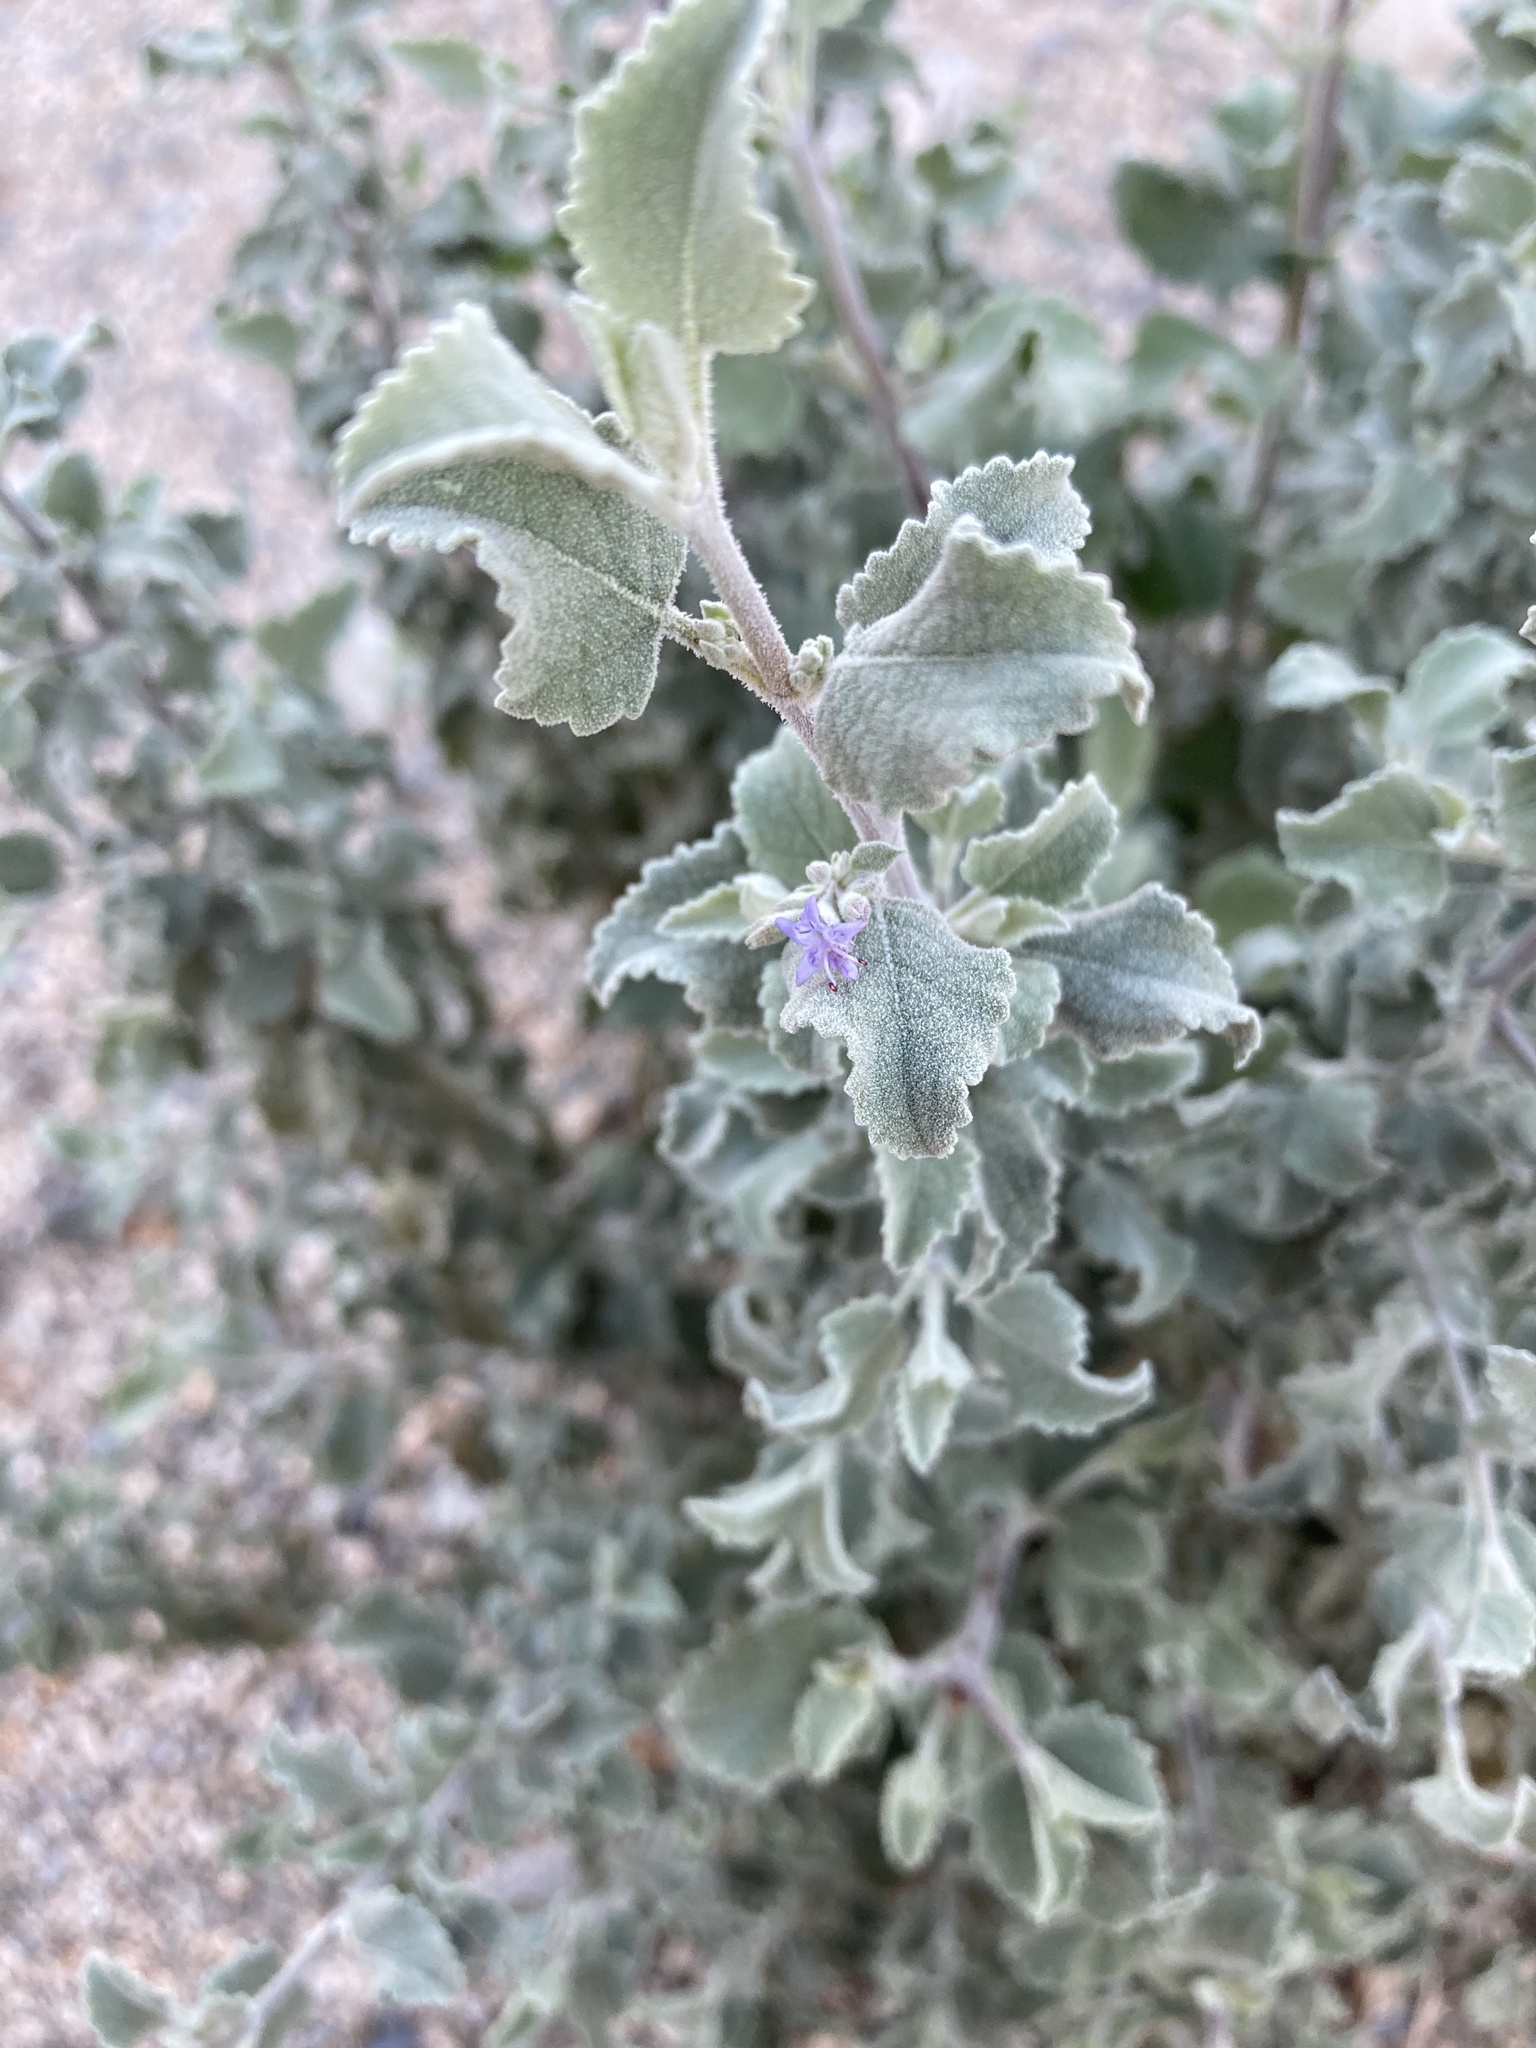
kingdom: Plantae
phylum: Tracheophyta
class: Magnoliopsida
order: Lamiales
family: Lamiaceae
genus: Condea
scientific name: Condea emoryi
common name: Chia
